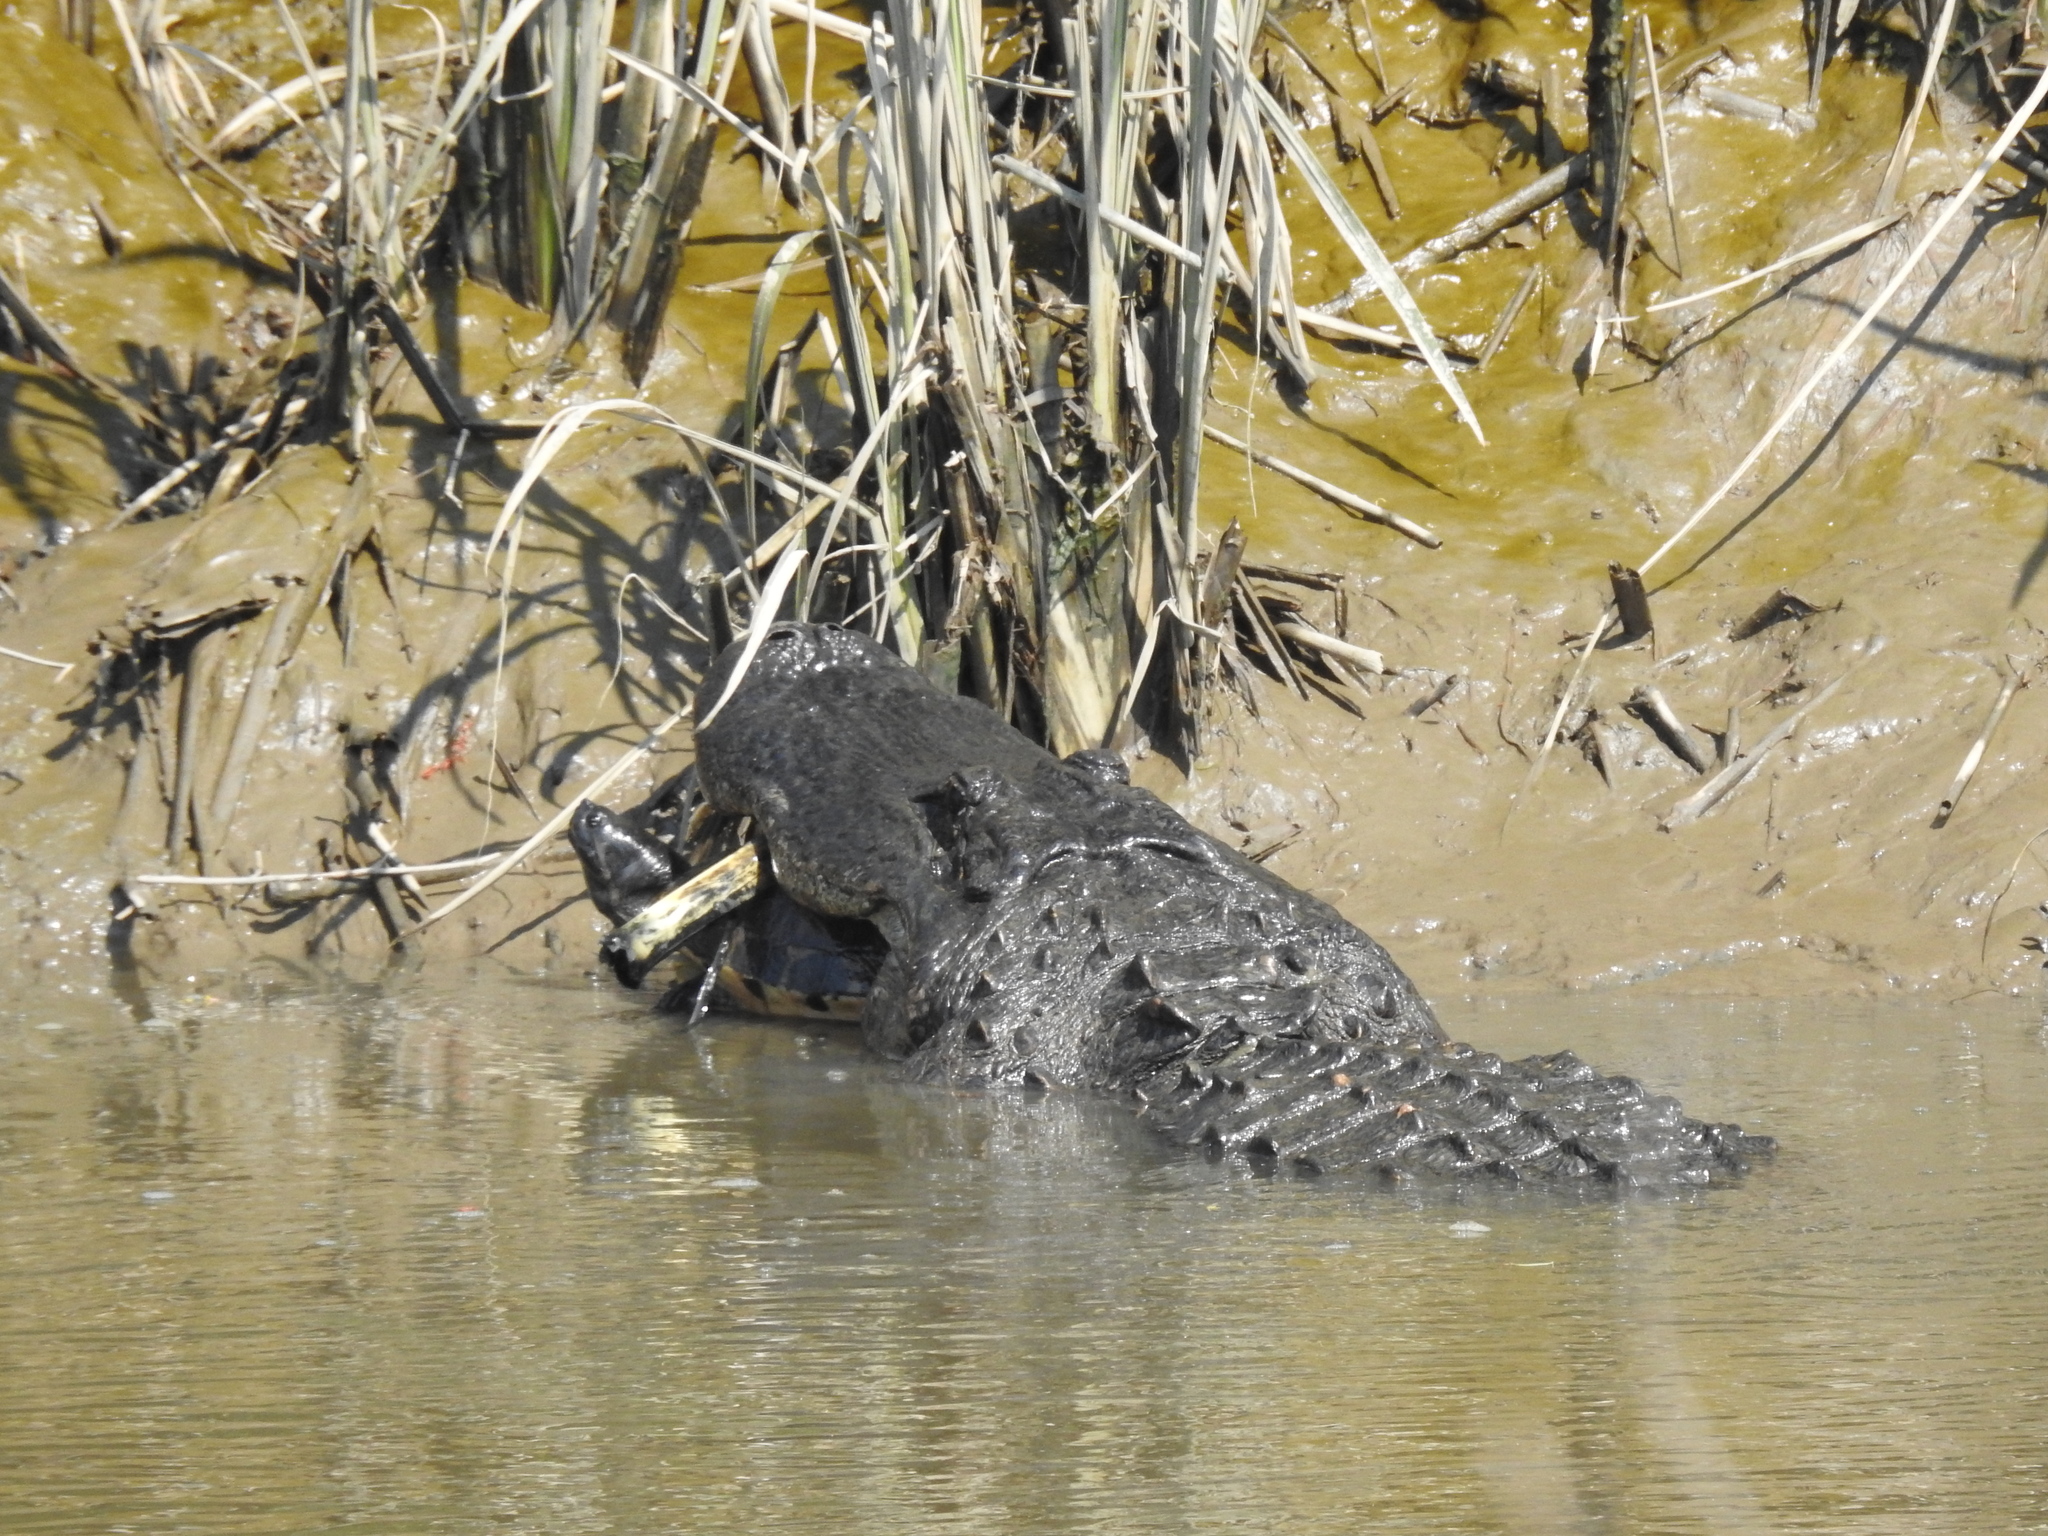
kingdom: Animalia
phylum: Chordata
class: Crocodylia
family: Alligatoridae
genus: Alligator
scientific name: Alligator mississippiensis
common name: American alligator
